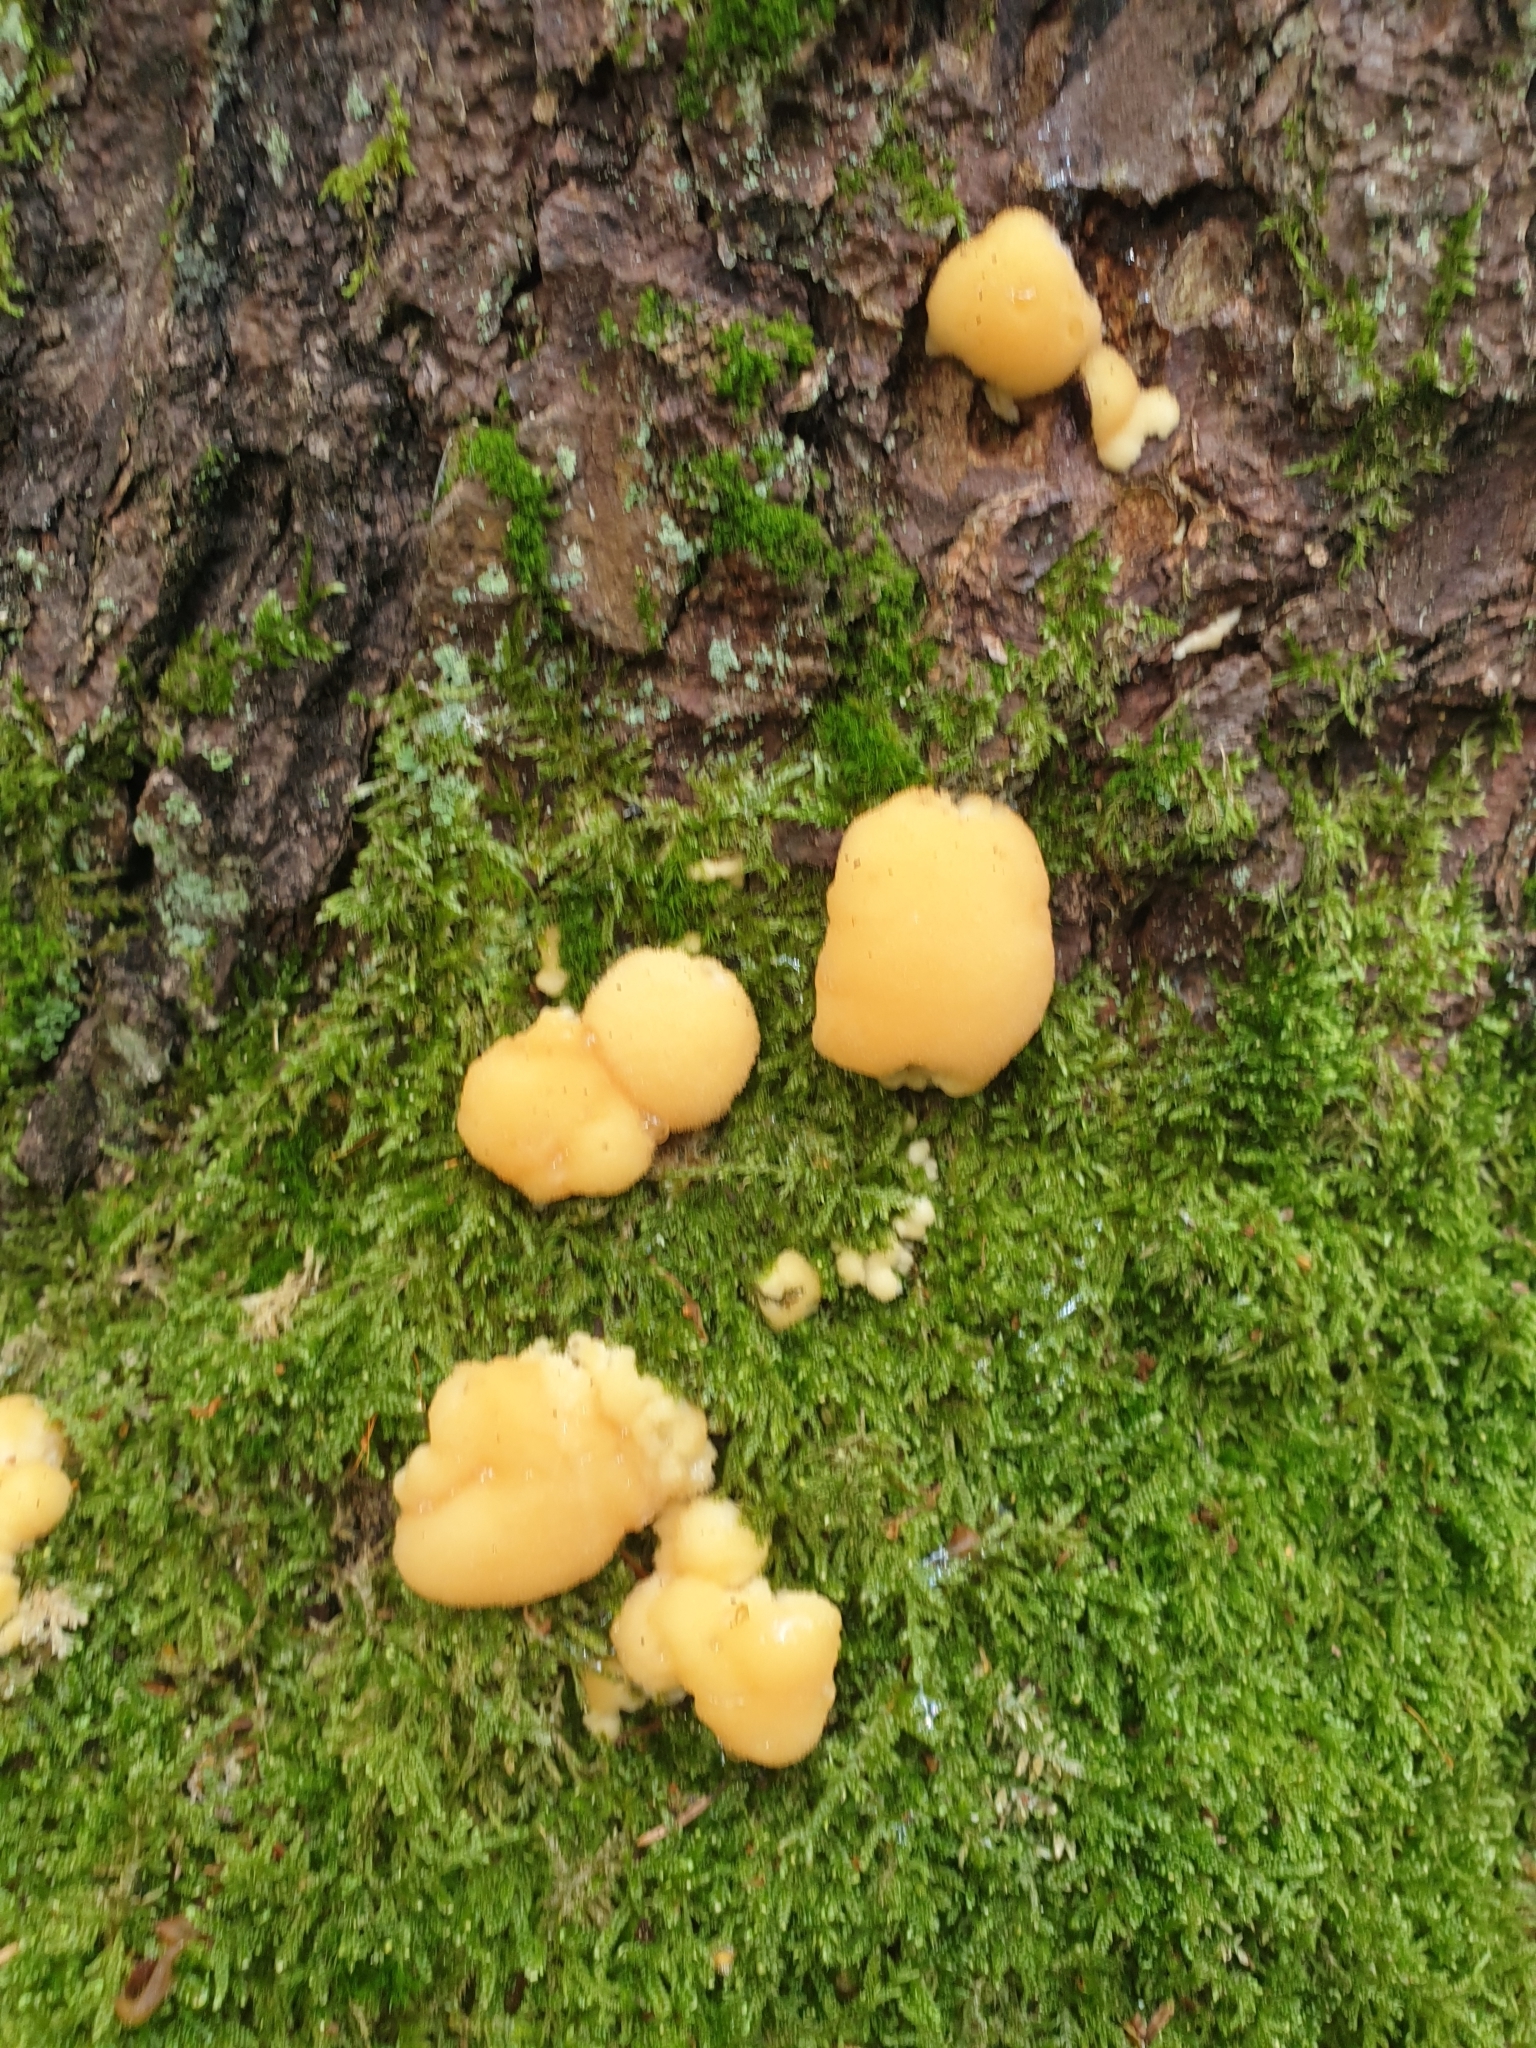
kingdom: Fungi
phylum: Basidiomycota
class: Agaricomycetes
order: Polyporales
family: Fomitopsidaceae
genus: Climacocystis
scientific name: Climacocystis borealis
